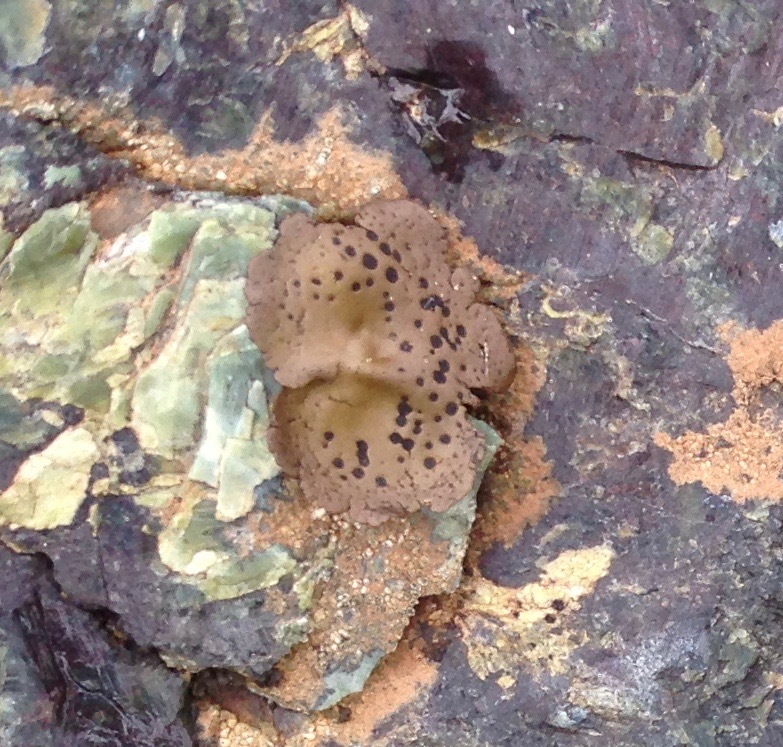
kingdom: Fungi
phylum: Ascomycota
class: Lecanoromycetes
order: Umbilicariales
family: Umbilicariaceae
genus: Umbilicaria
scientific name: Umbilicaria phaea
